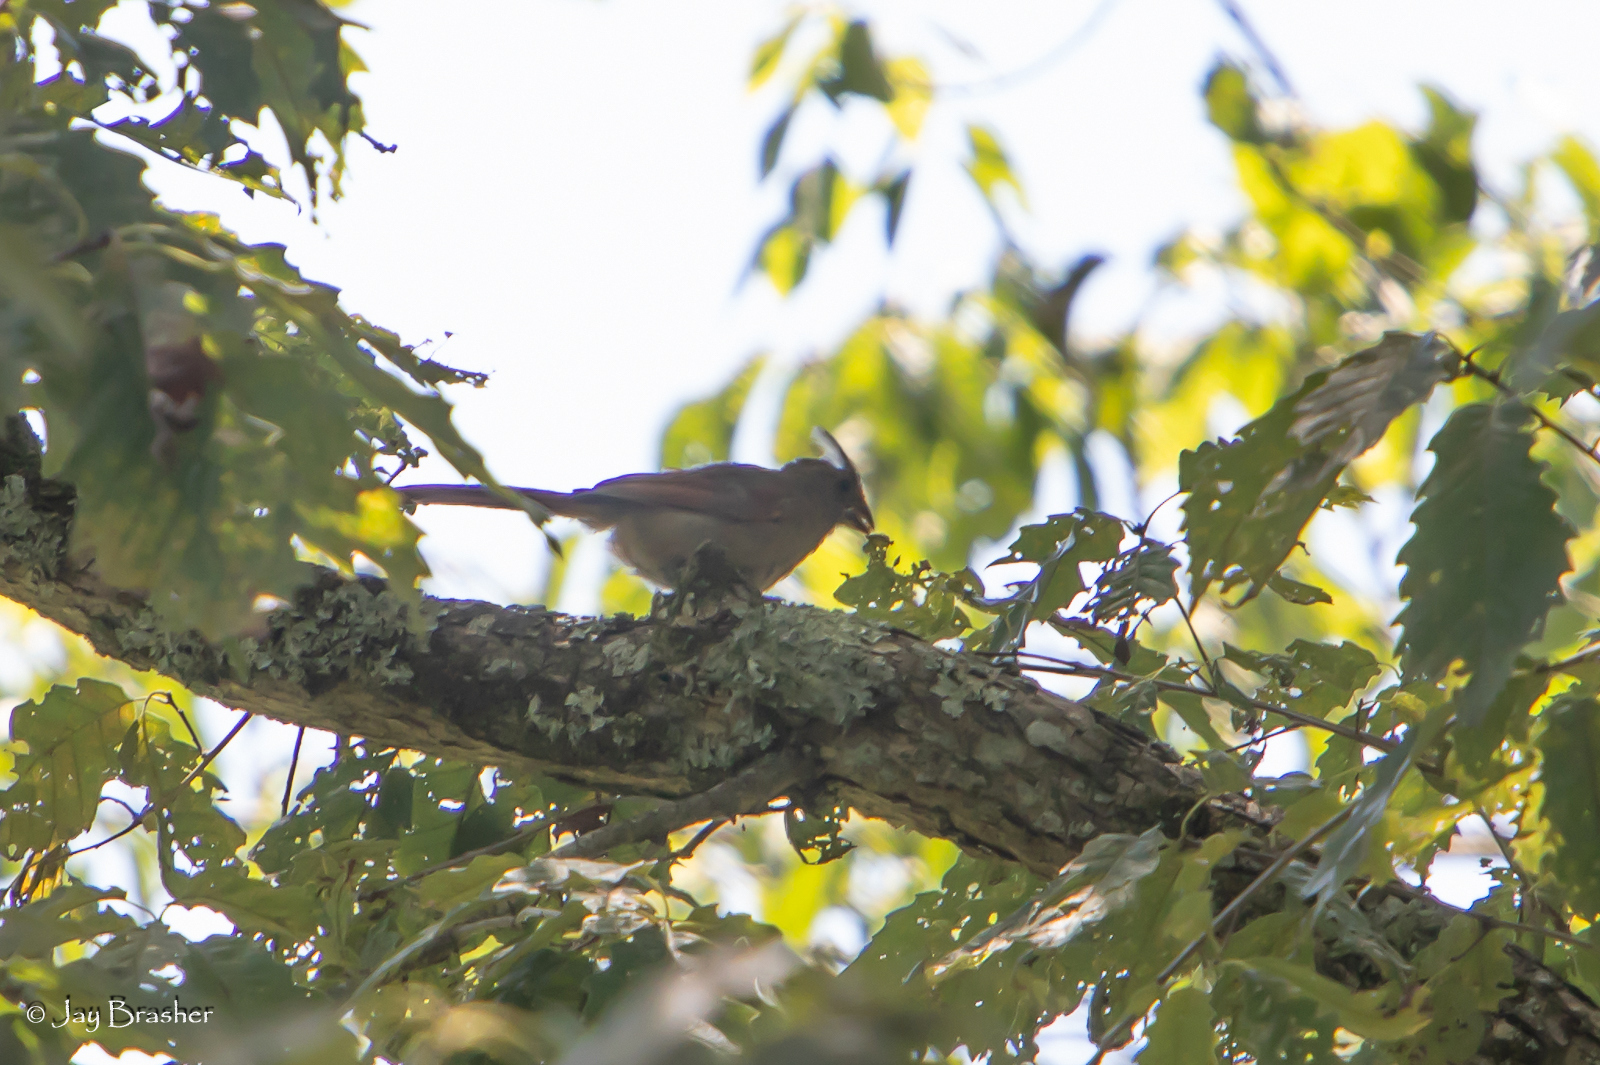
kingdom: Animalia
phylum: Chordata
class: Aves
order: Passeriformes
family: Cardinalidae
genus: Cardinalis
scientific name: Cardinalis cardinalis
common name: Northern cardinal
